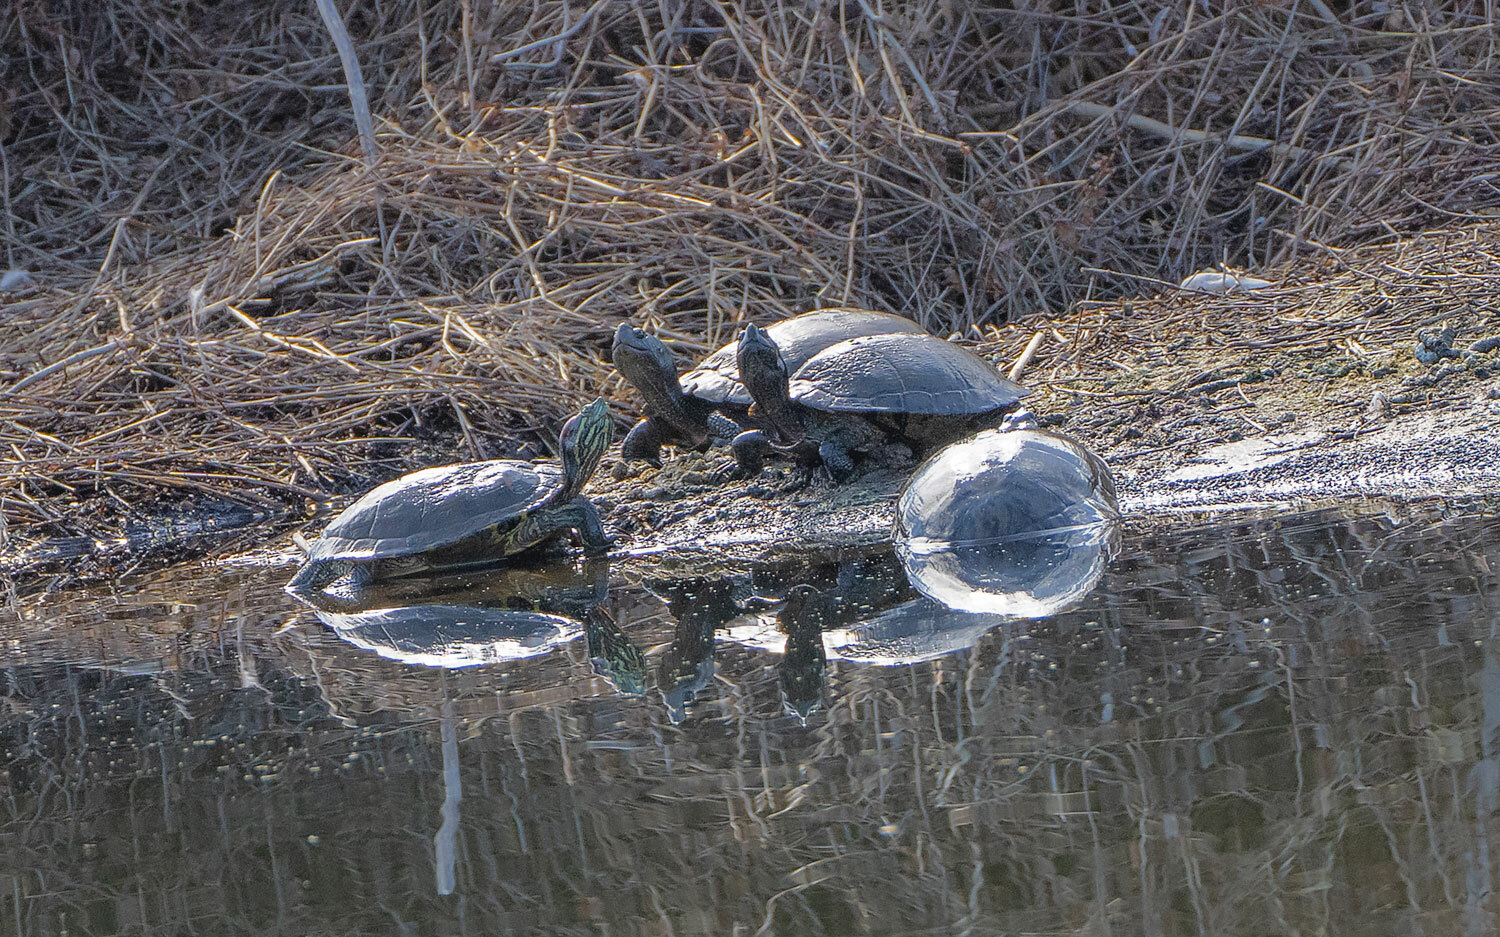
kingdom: Animalia
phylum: Chordata
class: Testudines
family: Emydidae
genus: Trachemys
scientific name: Trachemys scripta
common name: Slider
